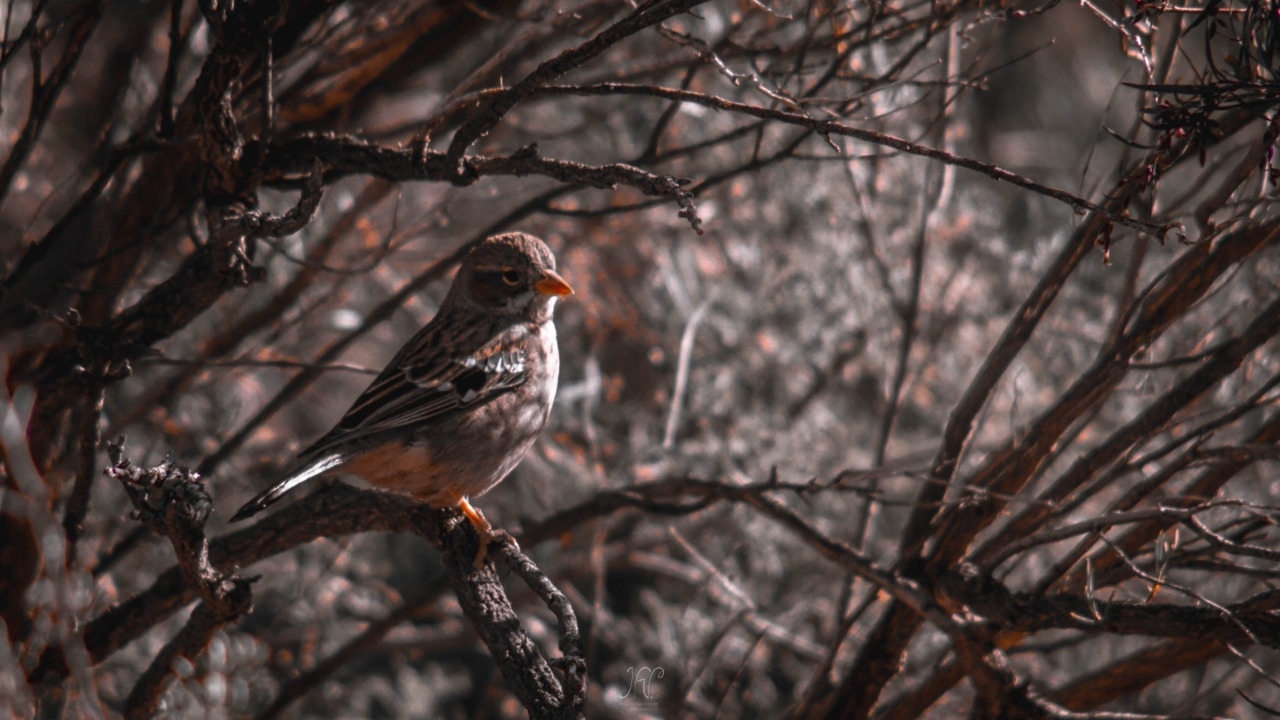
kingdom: Animalia
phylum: Chordata
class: Aves
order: Passeriformes
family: Thraupidae
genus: Rhopospina
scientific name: Rhopospina fruticeti
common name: Mourning sierra finch
